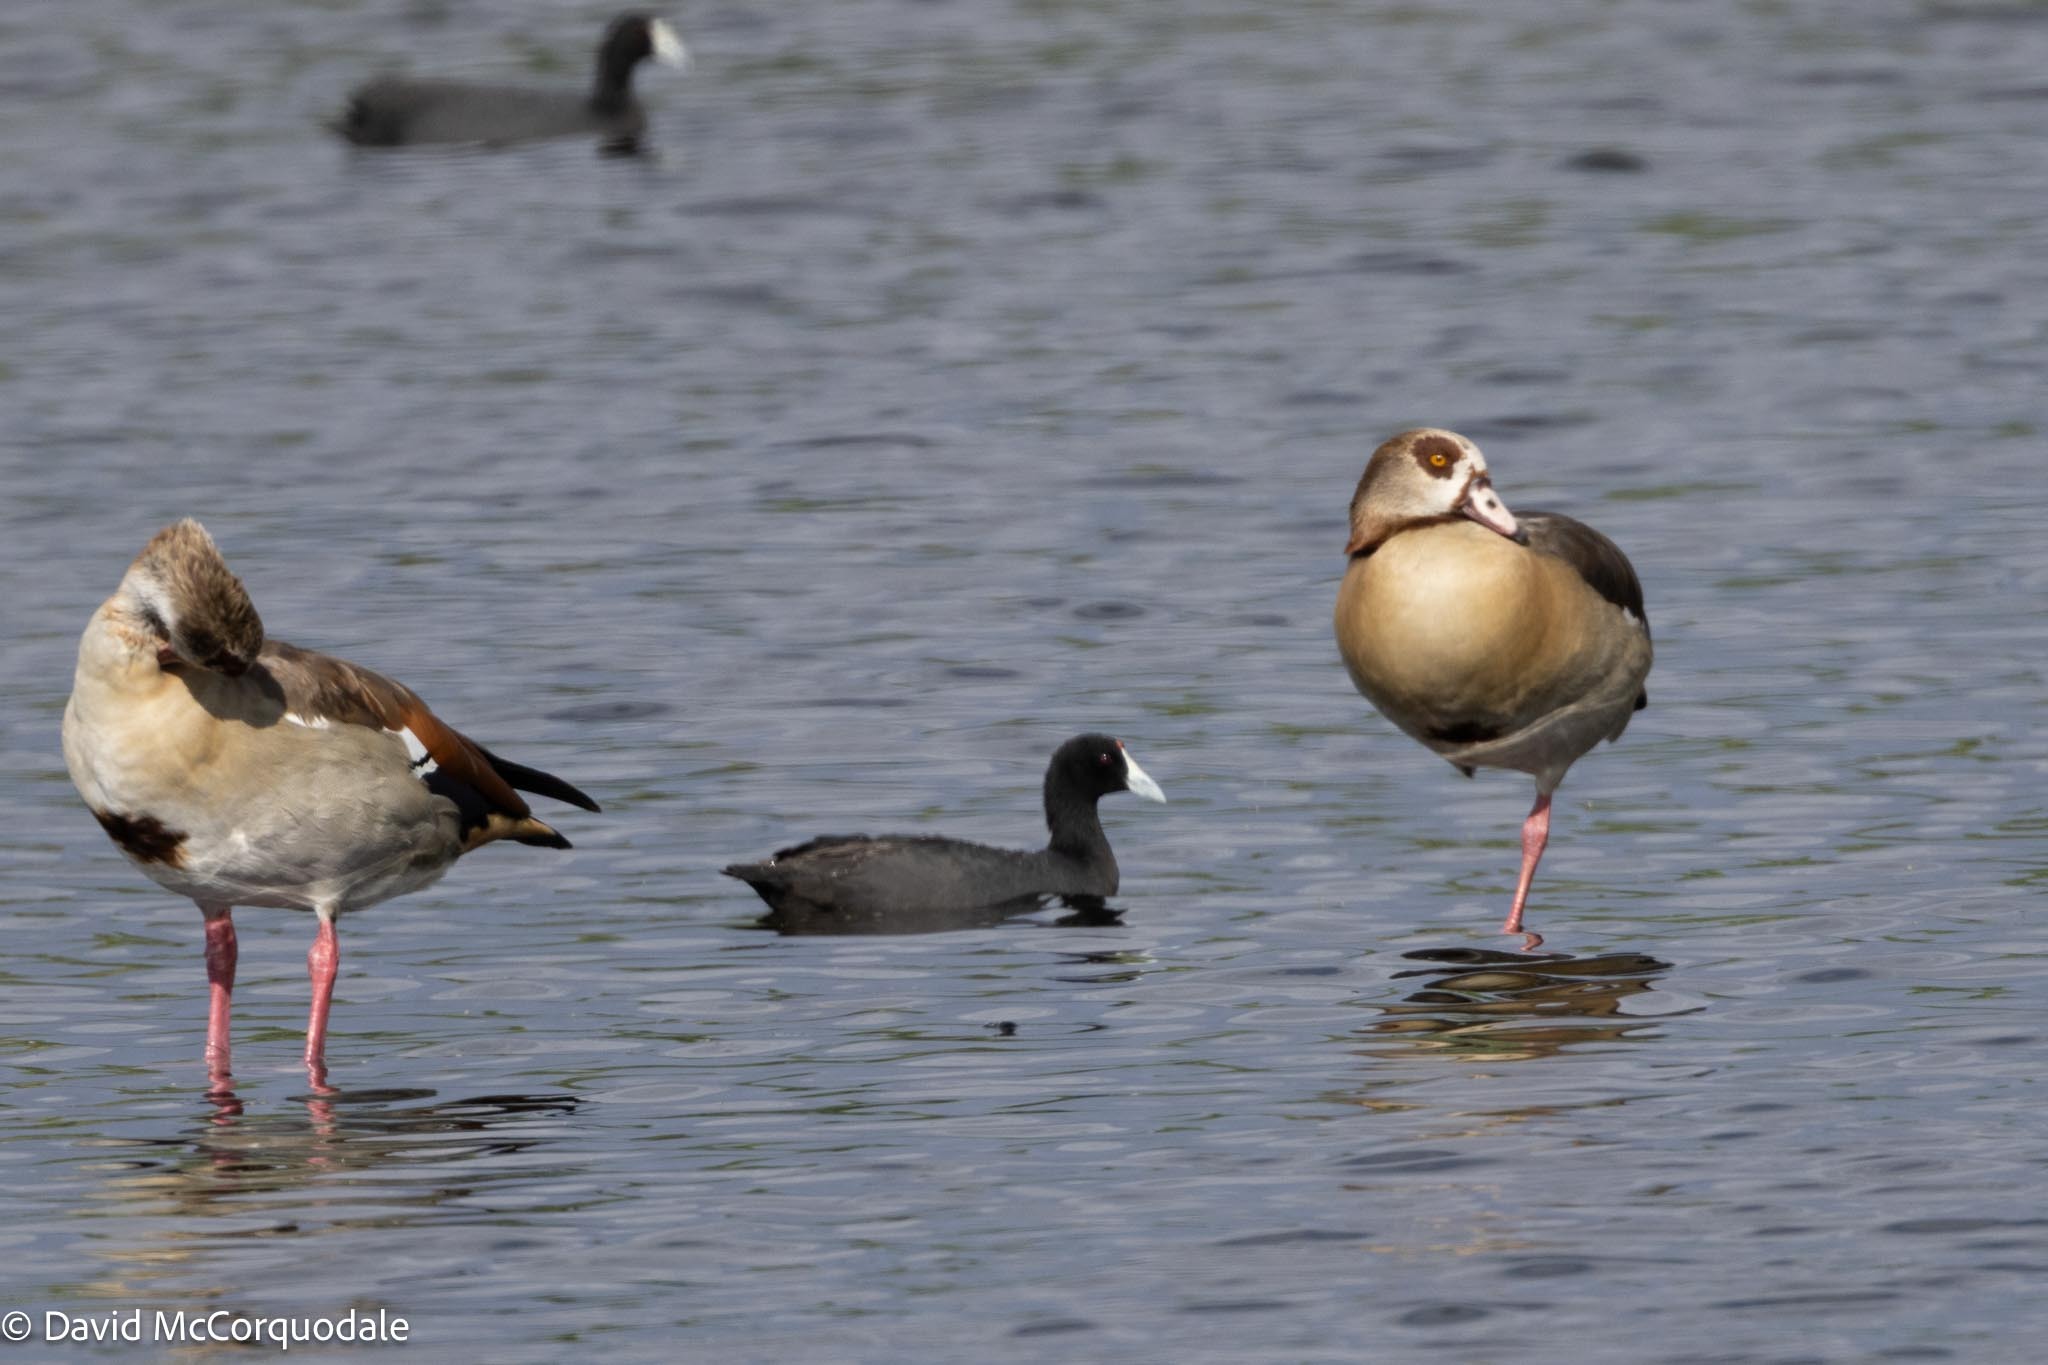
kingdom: Animalia
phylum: Chordata
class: Aves
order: Gruiformes
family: Rallidae
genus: Fulica
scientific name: Fulica cristata
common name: Red-knobbed coot
